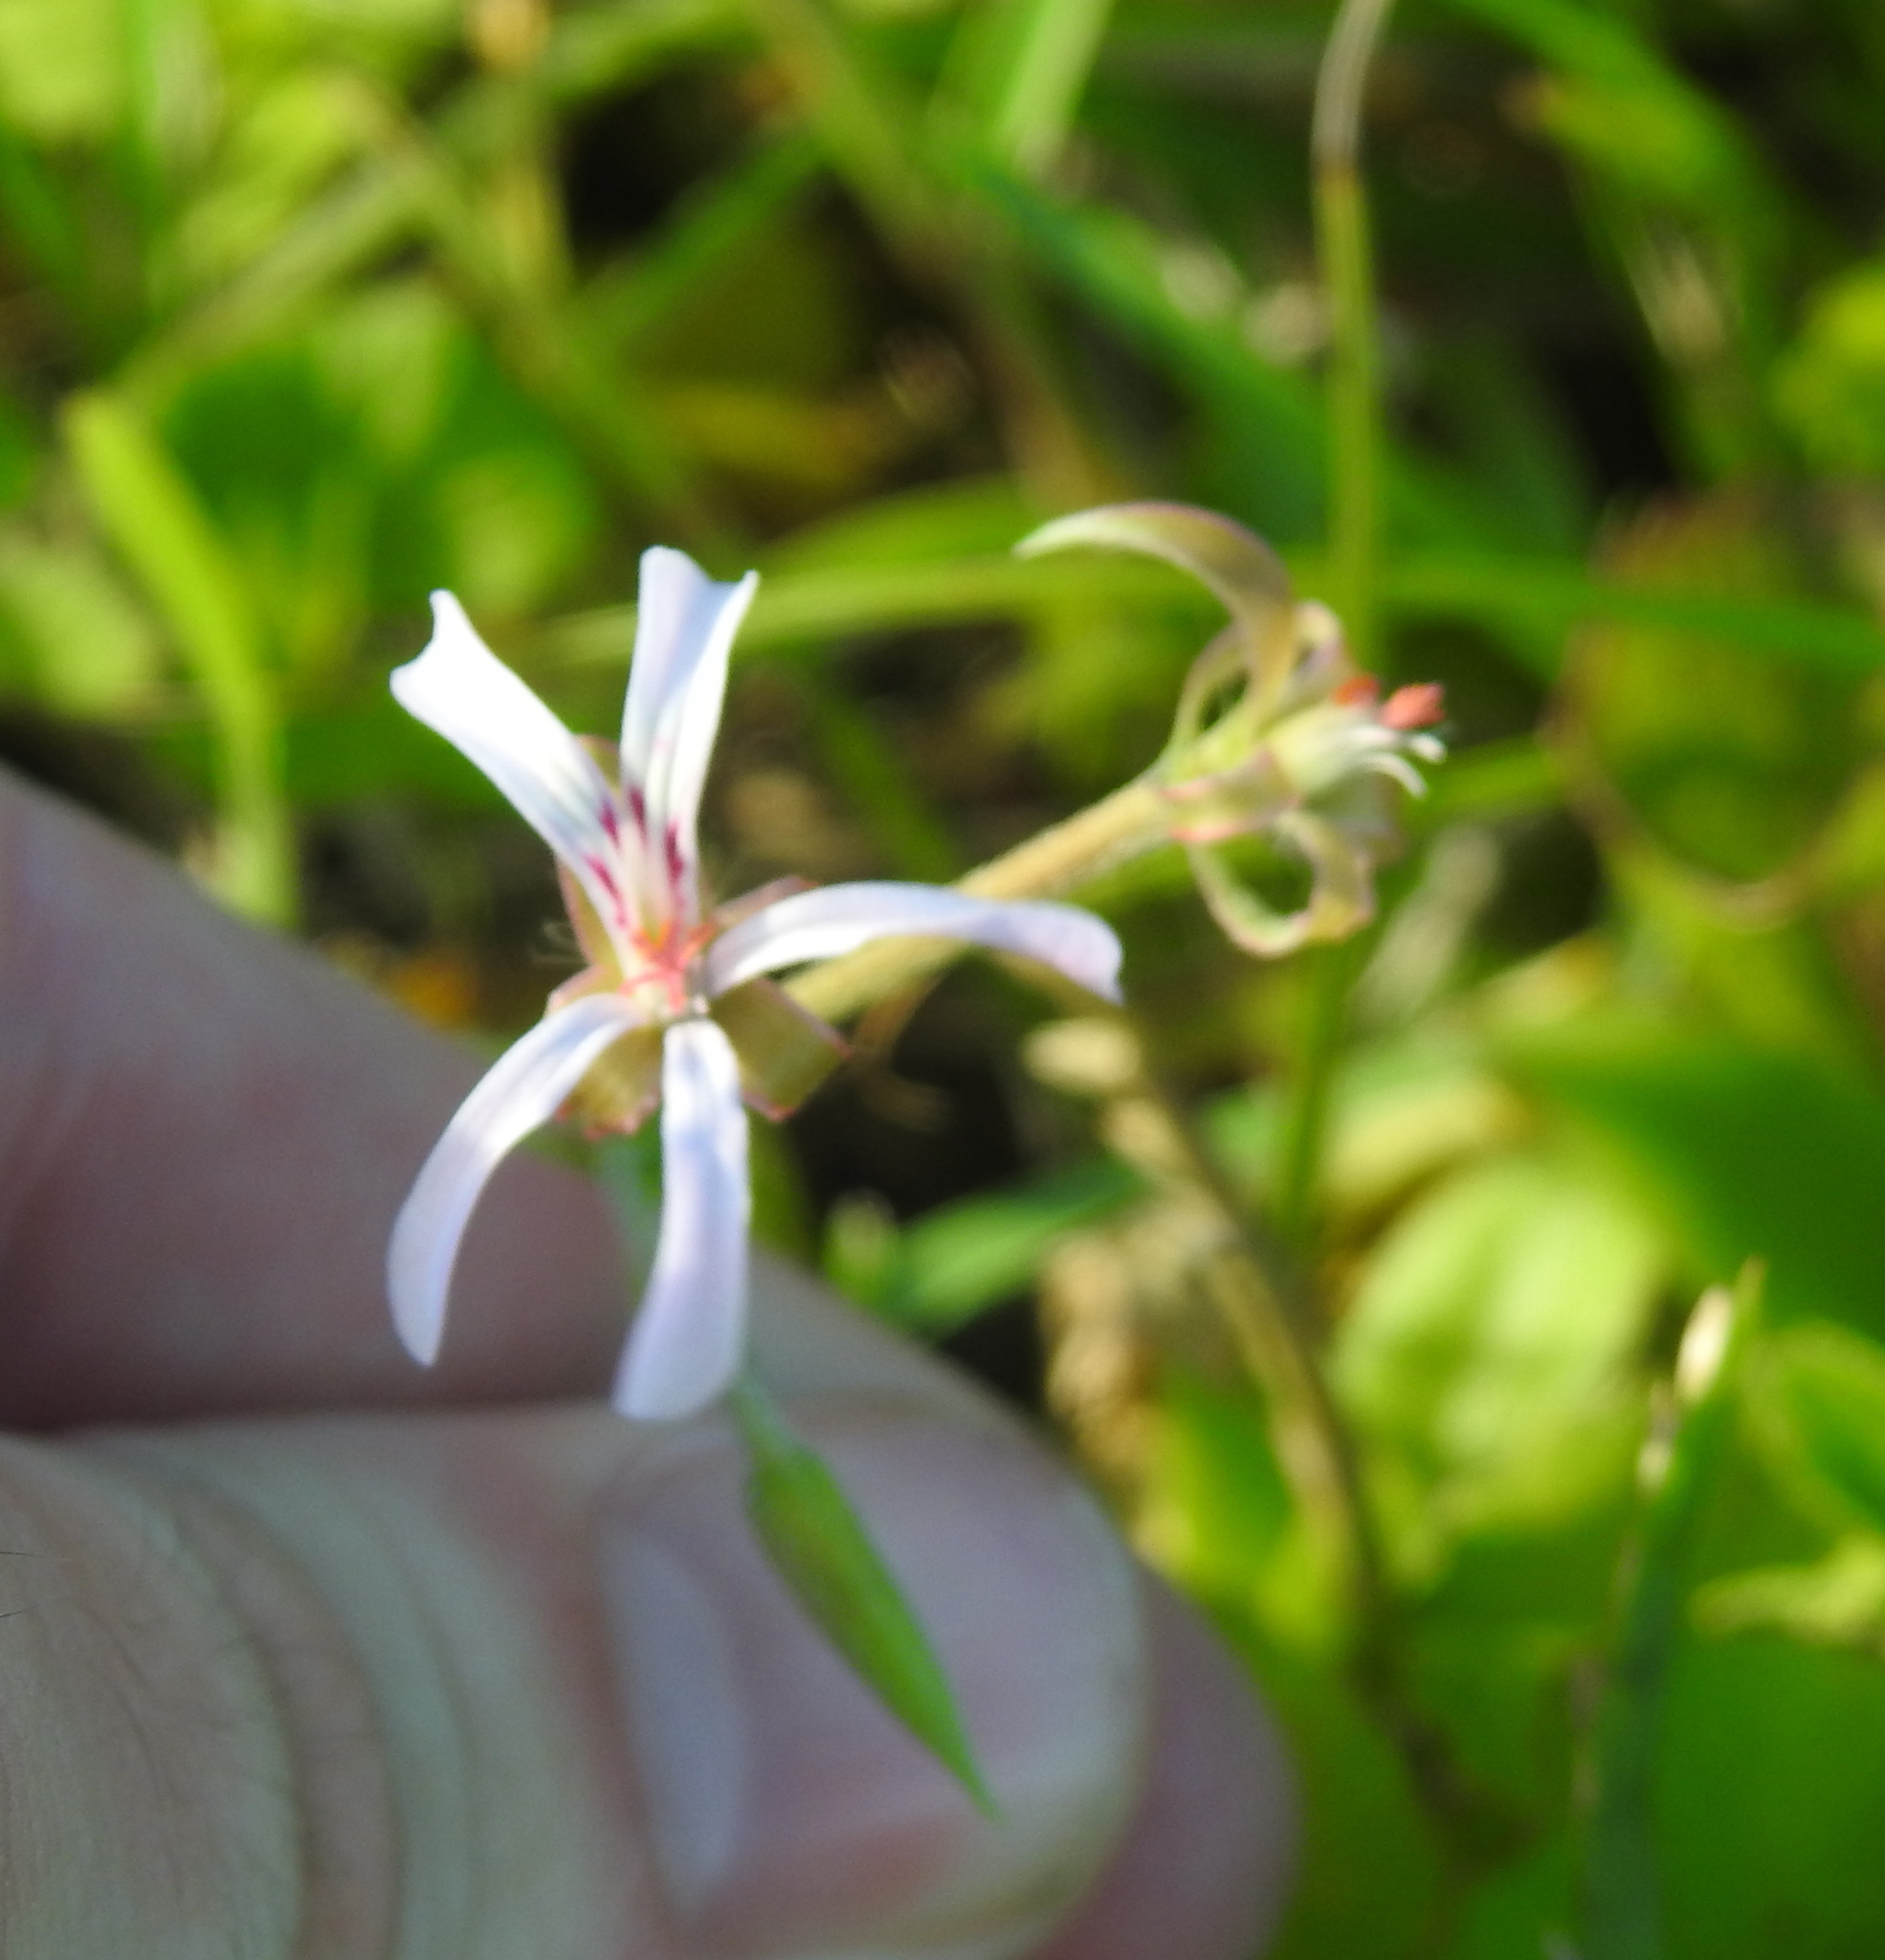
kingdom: Plantae
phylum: Tracheophyta
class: Magnoliopsida
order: Geraniales
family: Geraniaceae
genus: Pelargonium
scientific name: Pelargonium alchemilloides
